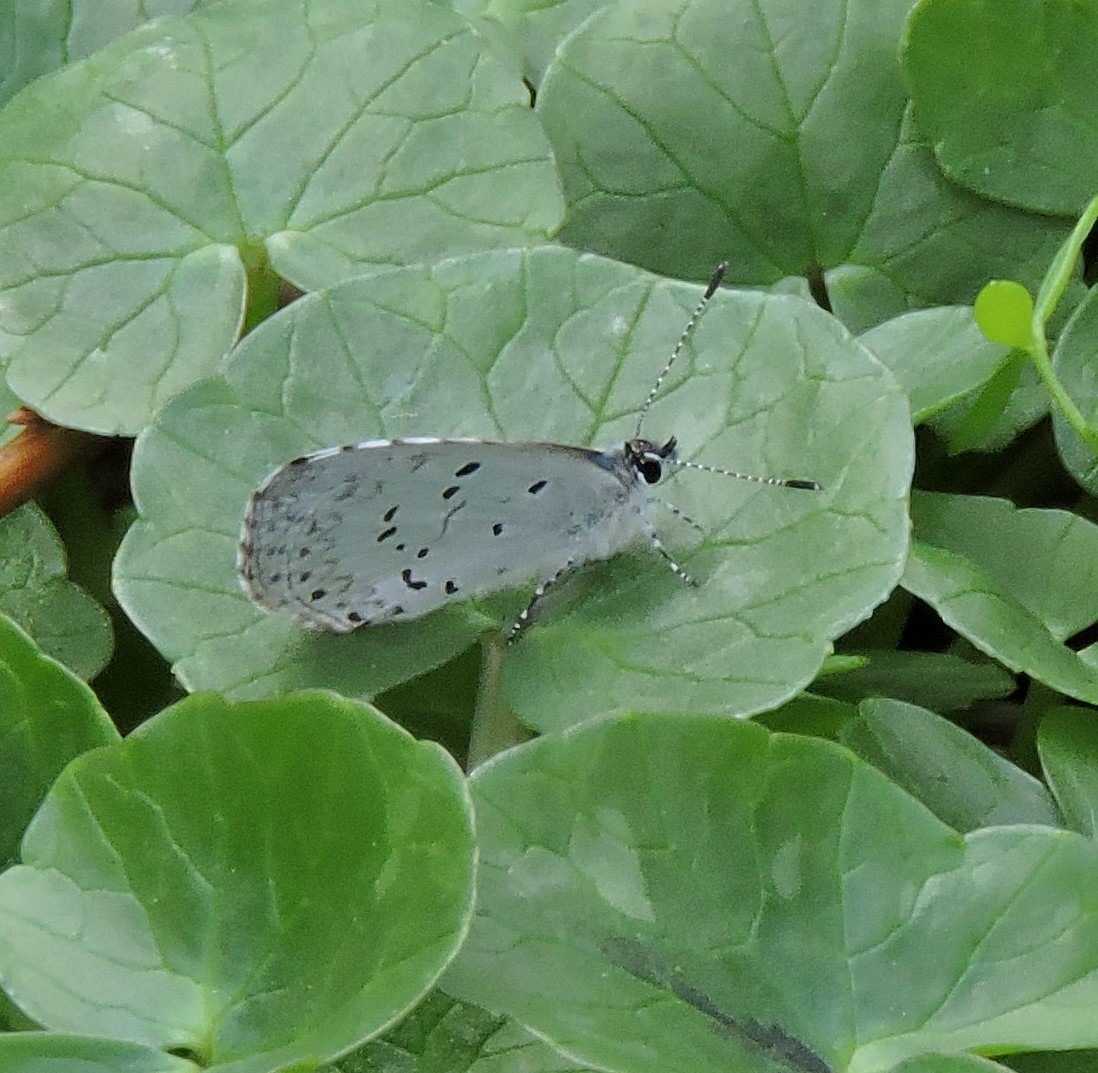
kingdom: Animalia
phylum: Arthropoda
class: Insecta
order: Lepidoptera
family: Lycaenidae
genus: Cyaniris
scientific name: Cyaniris neglecta
